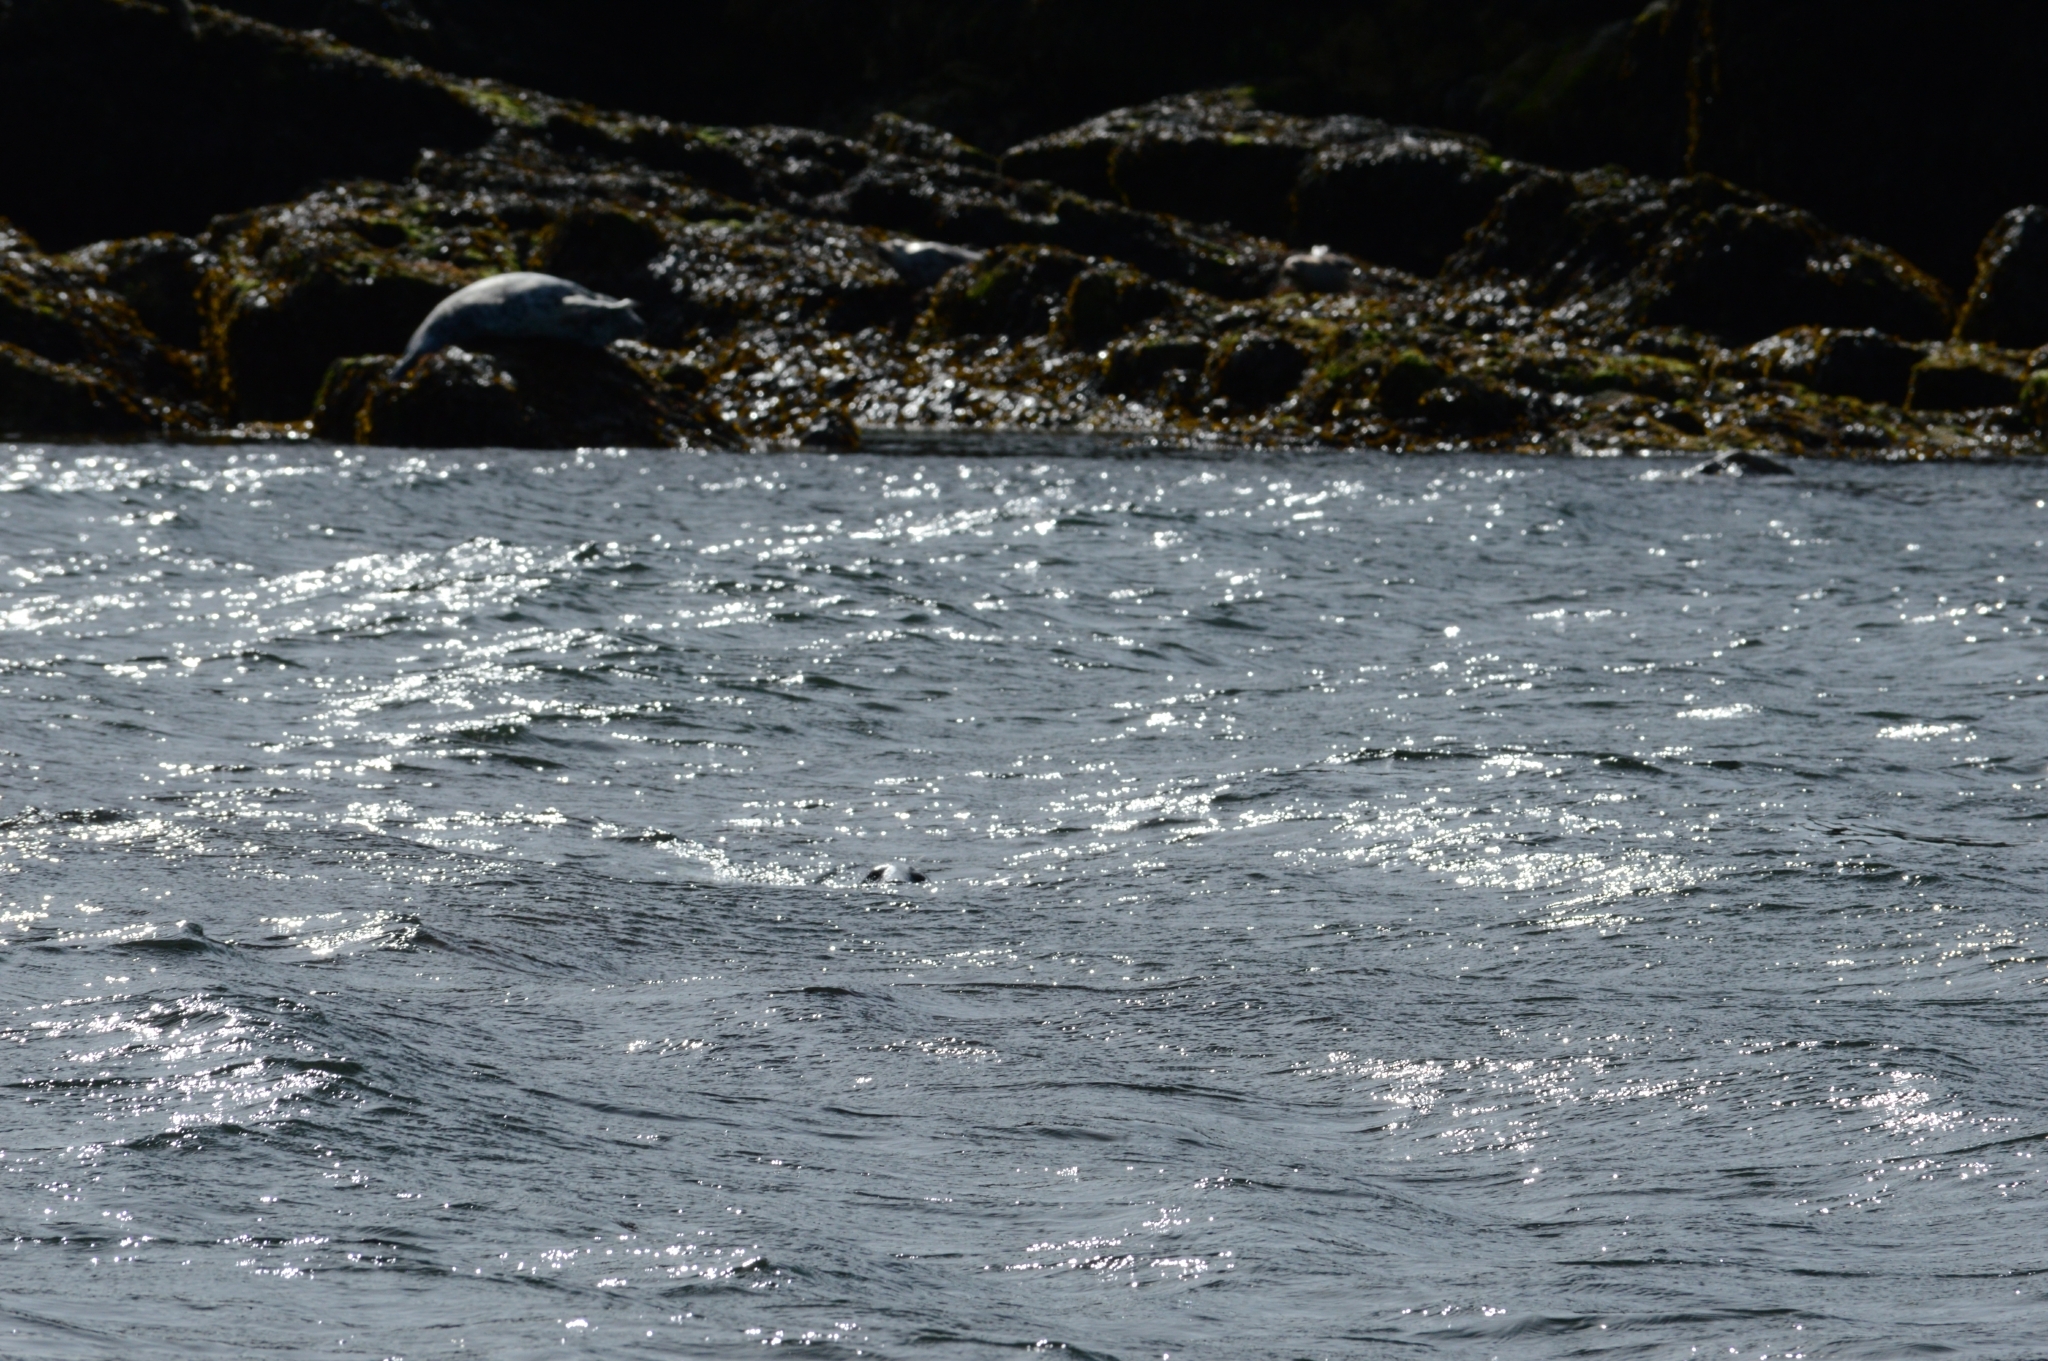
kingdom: Animalia
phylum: Chordata
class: Mammalia
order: Carnivora
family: Phocidae
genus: Halichoerus
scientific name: Halichoerus grypus
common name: Grey seal
